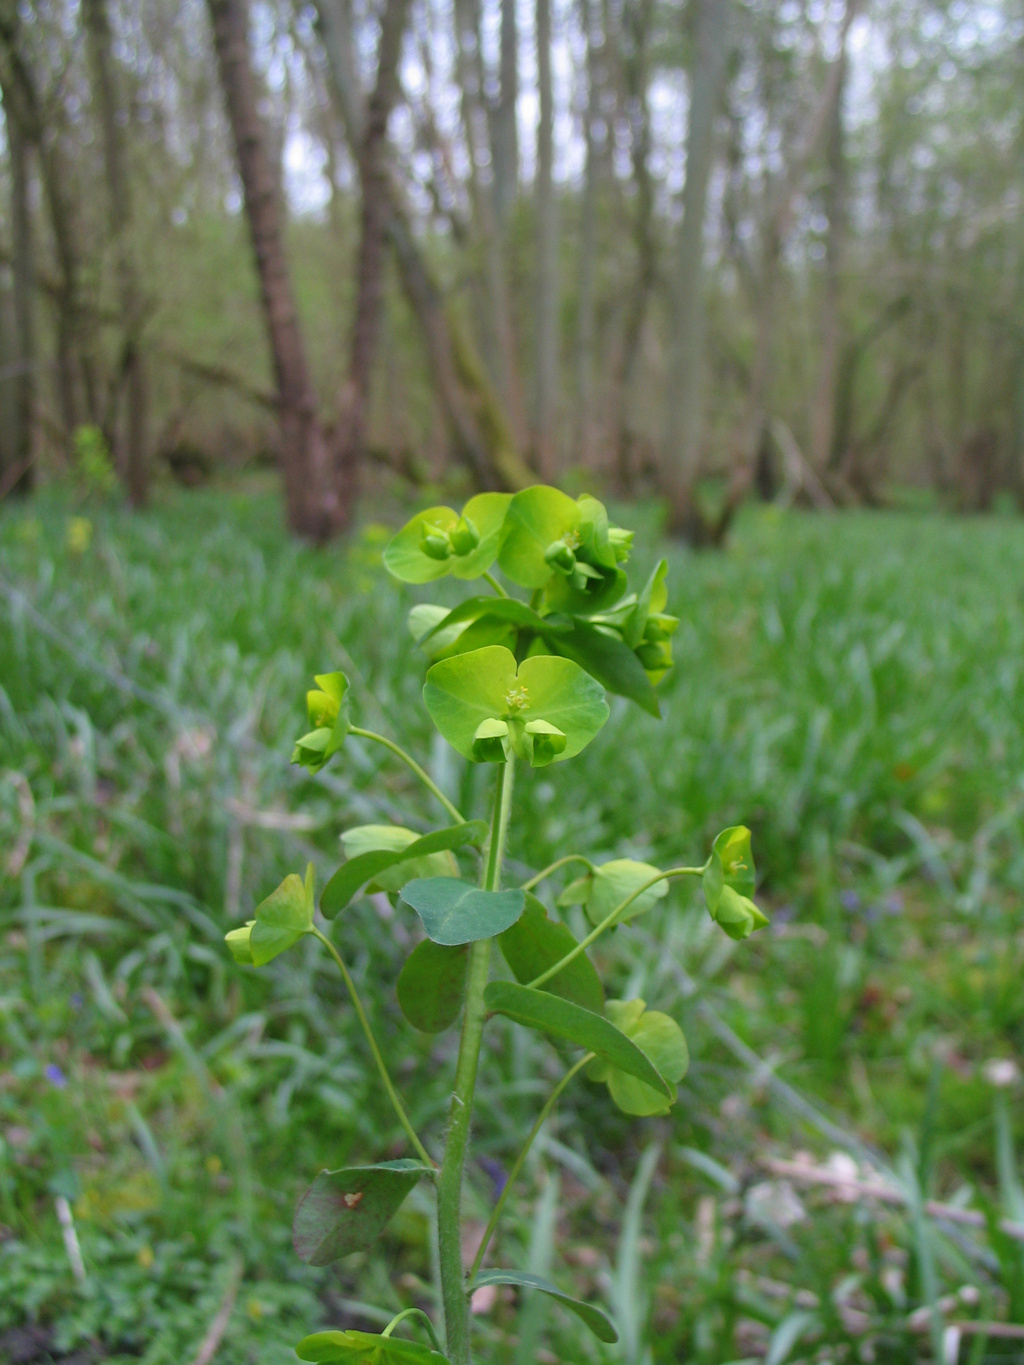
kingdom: Plantae
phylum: Tracheophyta
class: Magnoliopsida
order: Malpighiales
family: Euphorbiaceae
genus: Euphorbia
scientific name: Euphorbia amygdaloides
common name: Wood spurge
